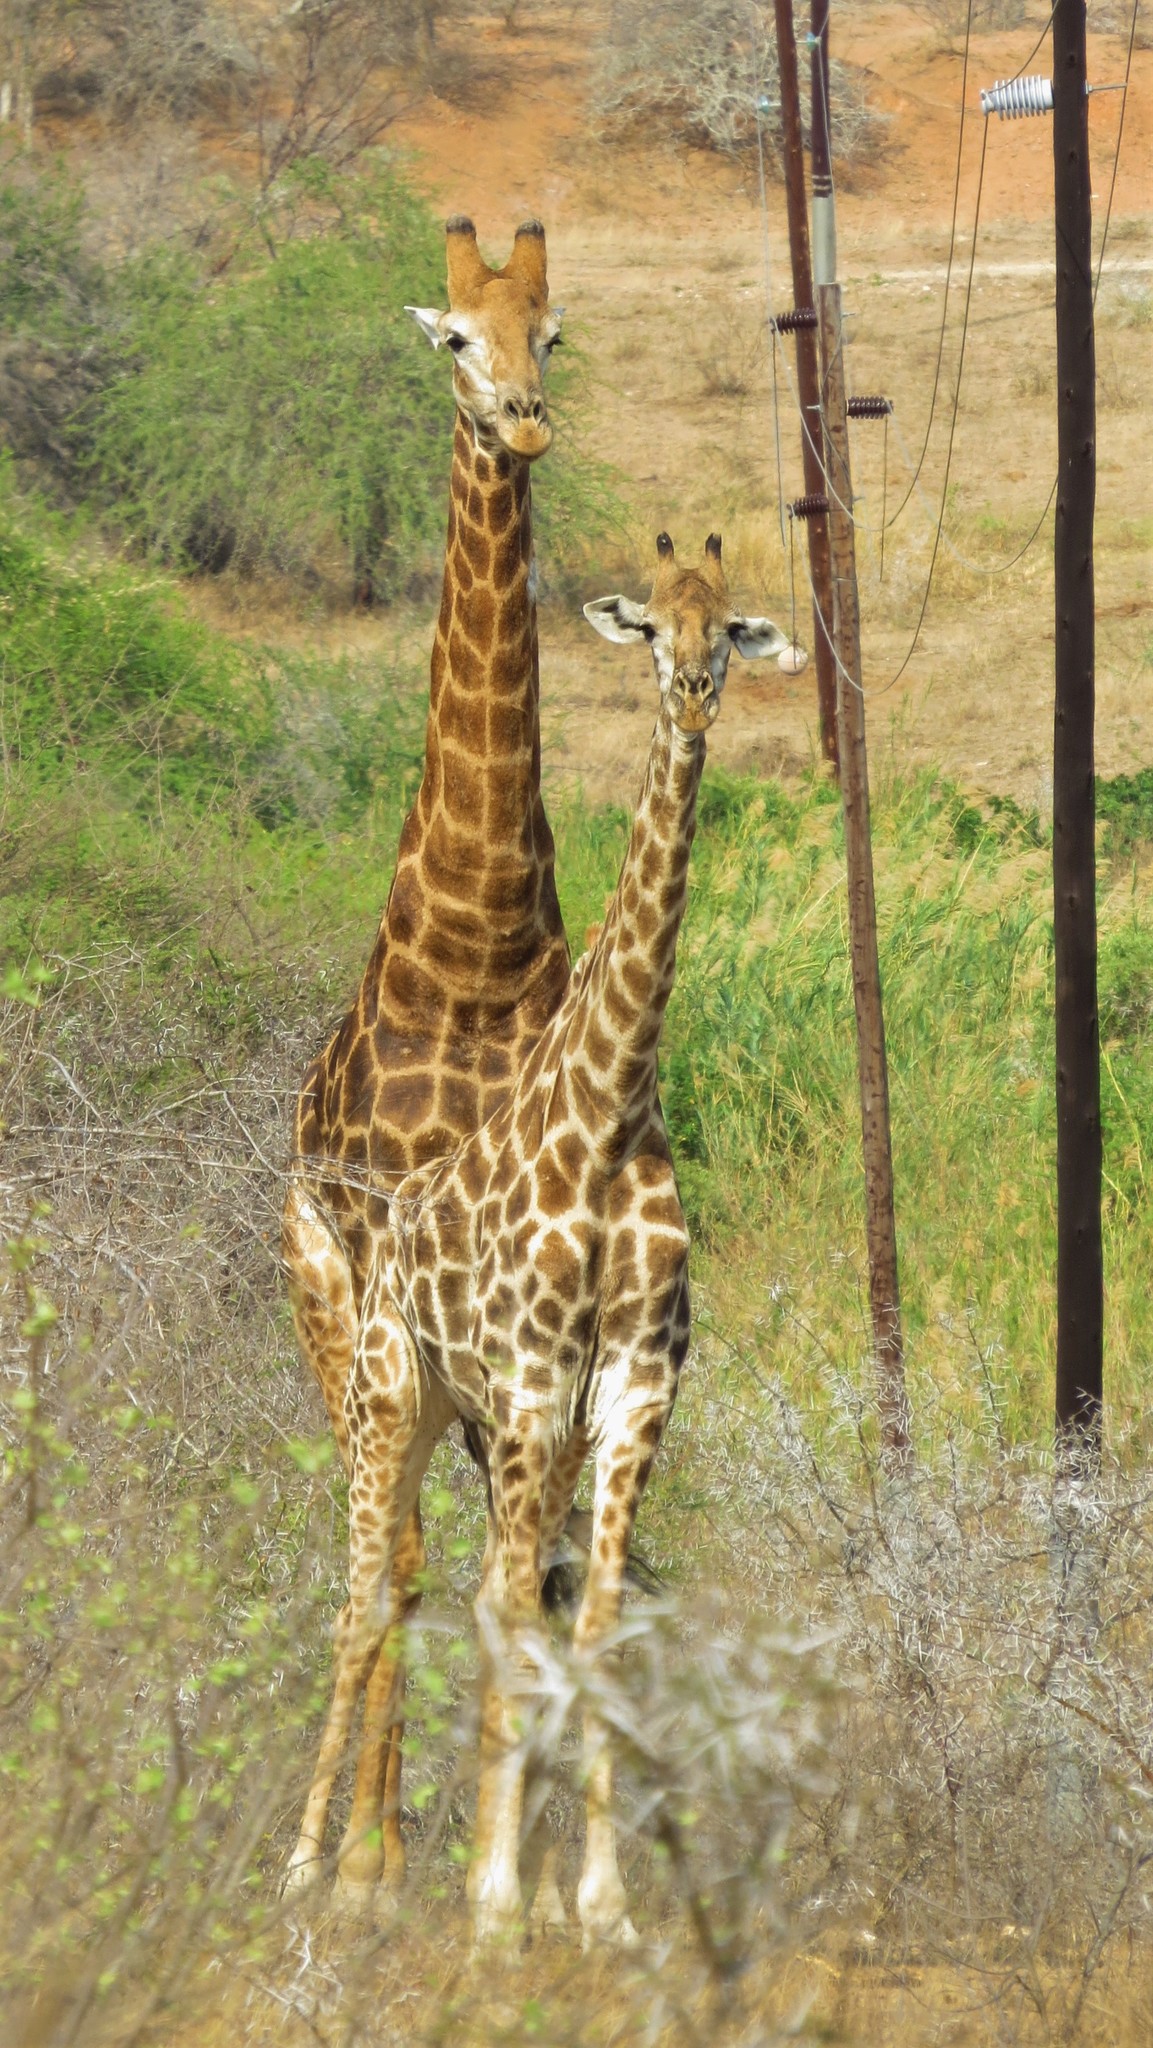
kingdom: Animalia
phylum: Chordata
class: Mammalia
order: Artiodactyla
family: Giraffidae
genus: Giraffa
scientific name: Giraffa giraffa
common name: Southern giraffe
